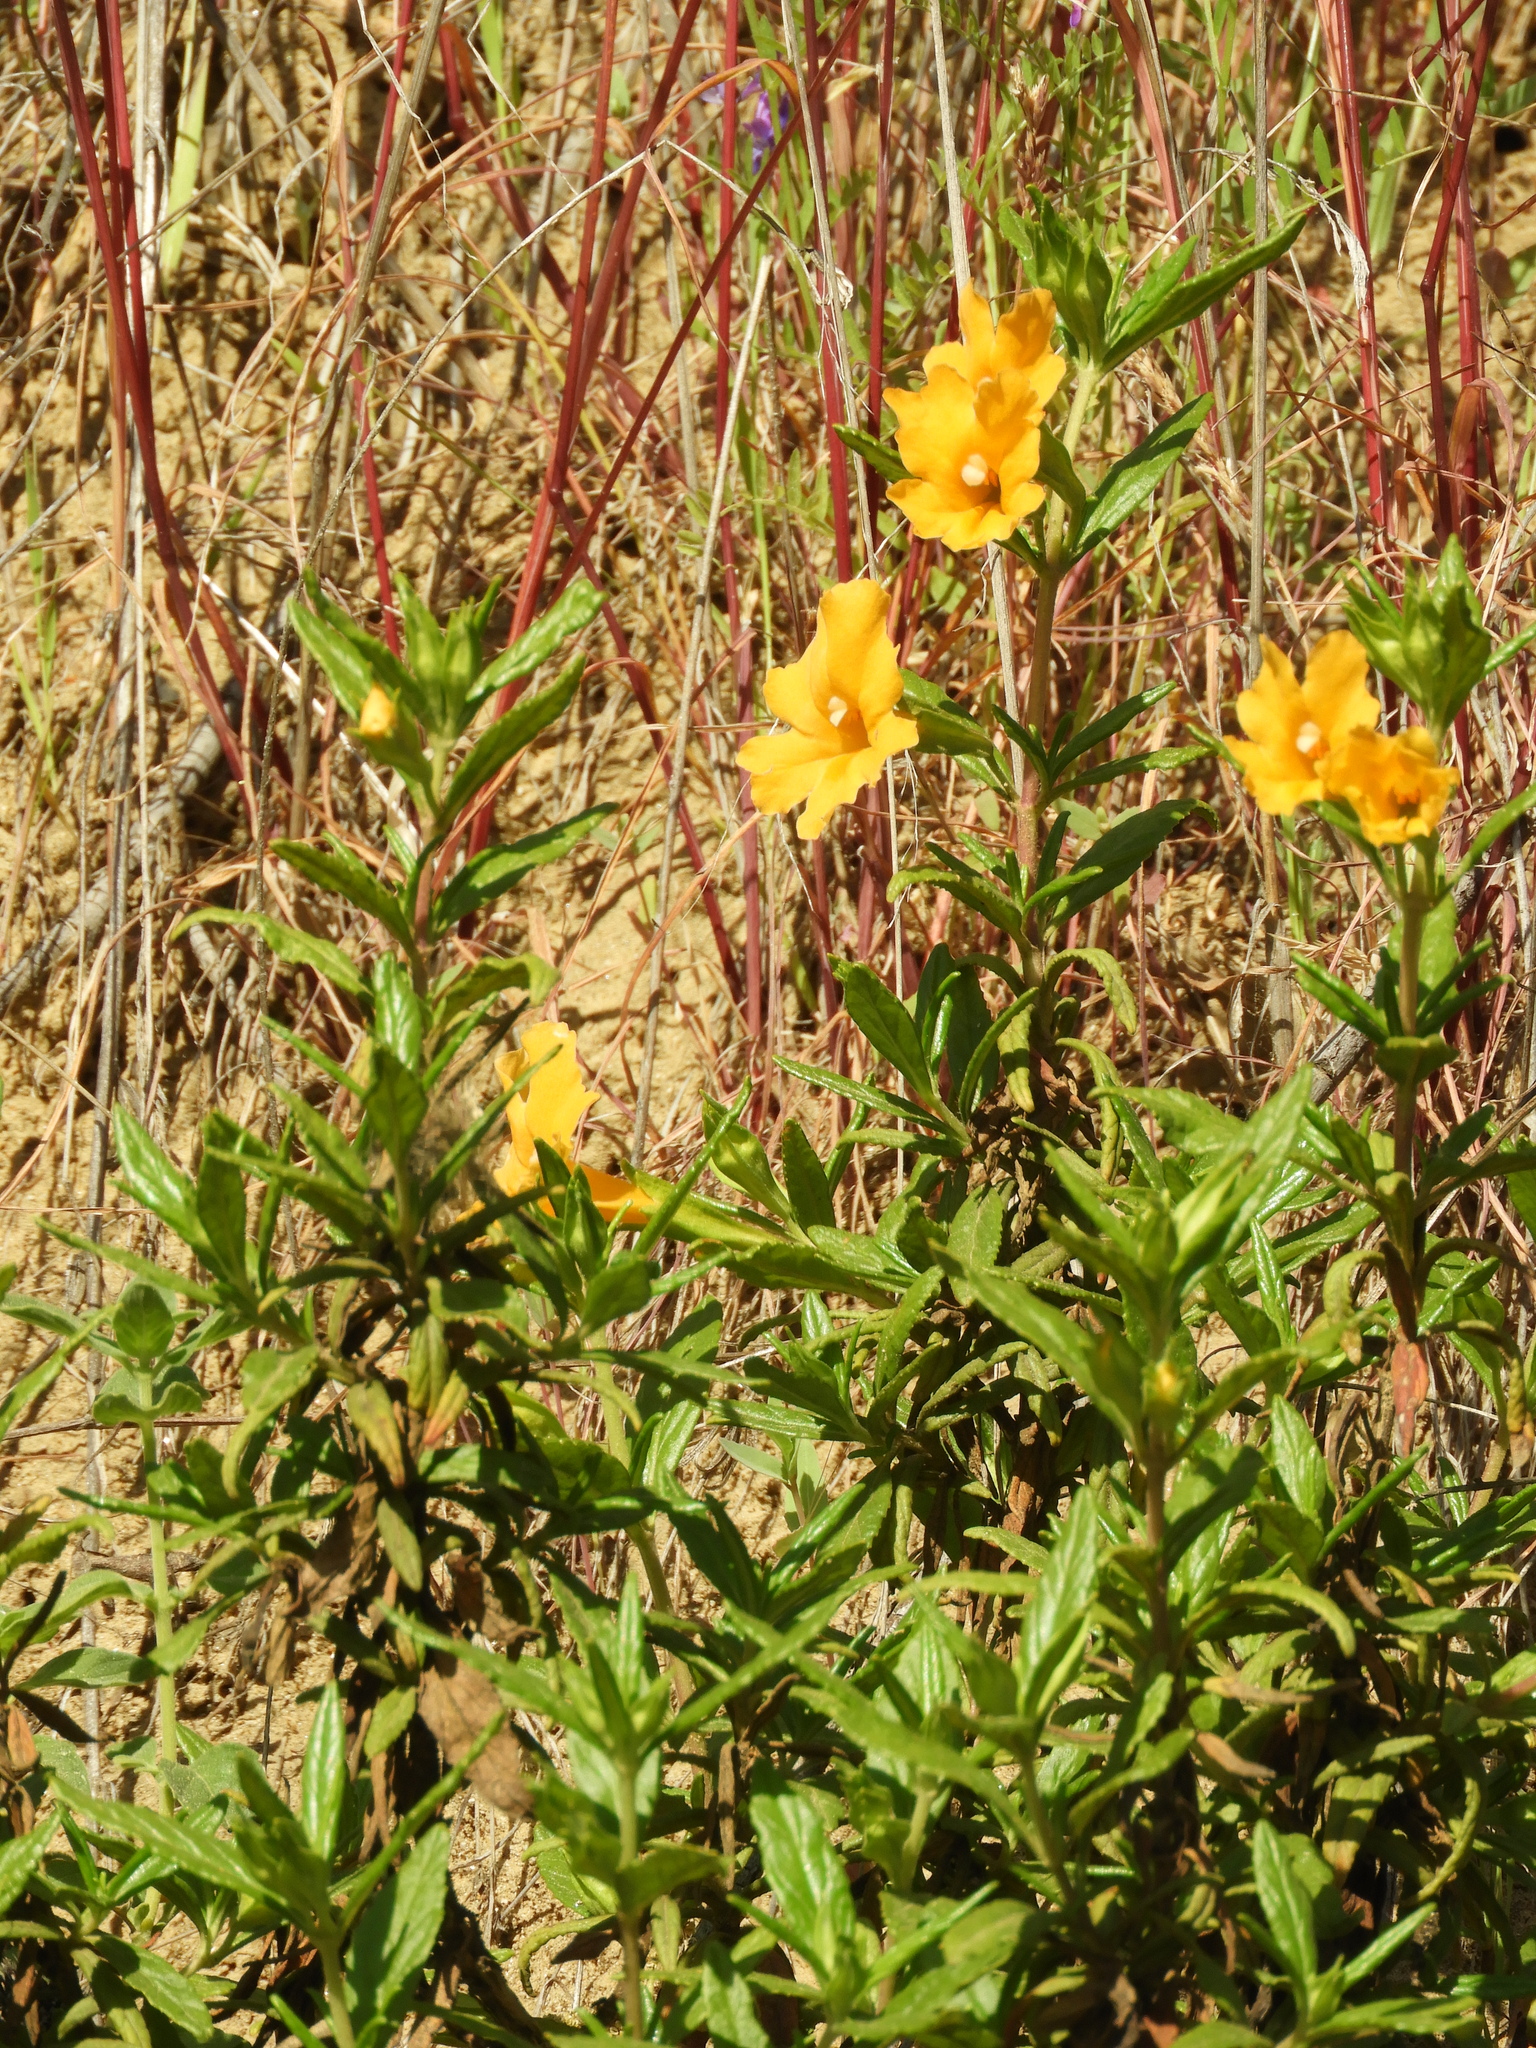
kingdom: Plantae
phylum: Tracheophyta
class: Magnoliopsida
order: Lamiales
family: Phrymaceae
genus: Diplacus
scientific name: Diplacus aurantiacus
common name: Bush monkey-flower
